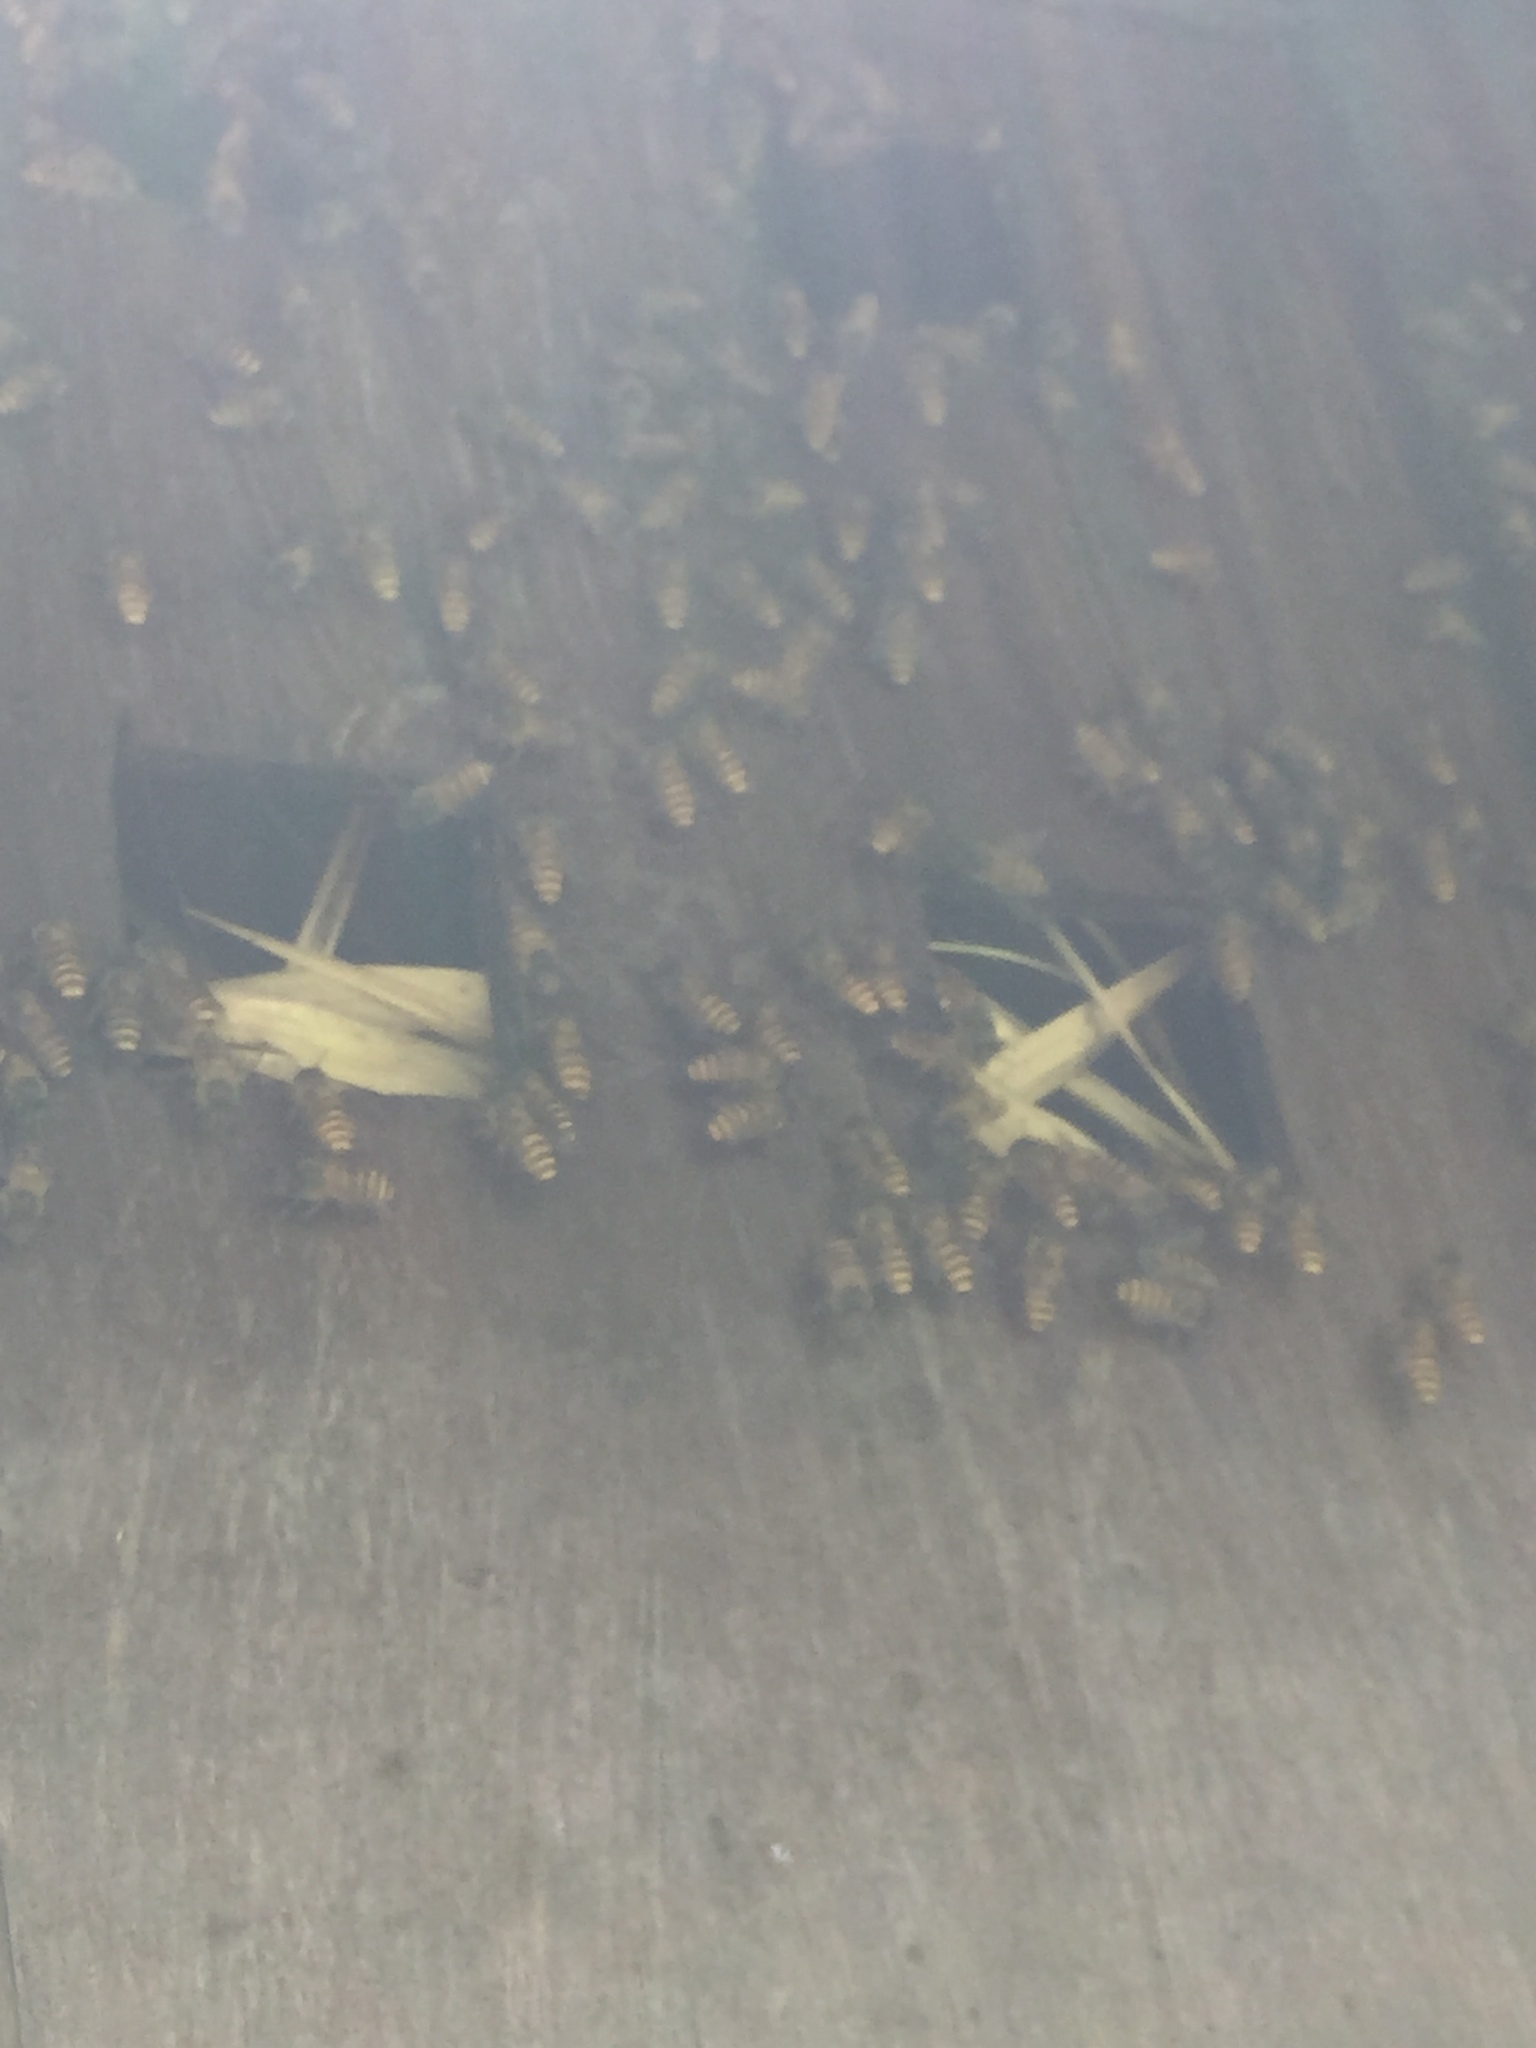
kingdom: Animalia
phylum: Arthropoda
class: Insecta
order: Hymenoptera
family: Apidae
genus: Apis
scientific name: Apis cerana
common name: Honey bee
